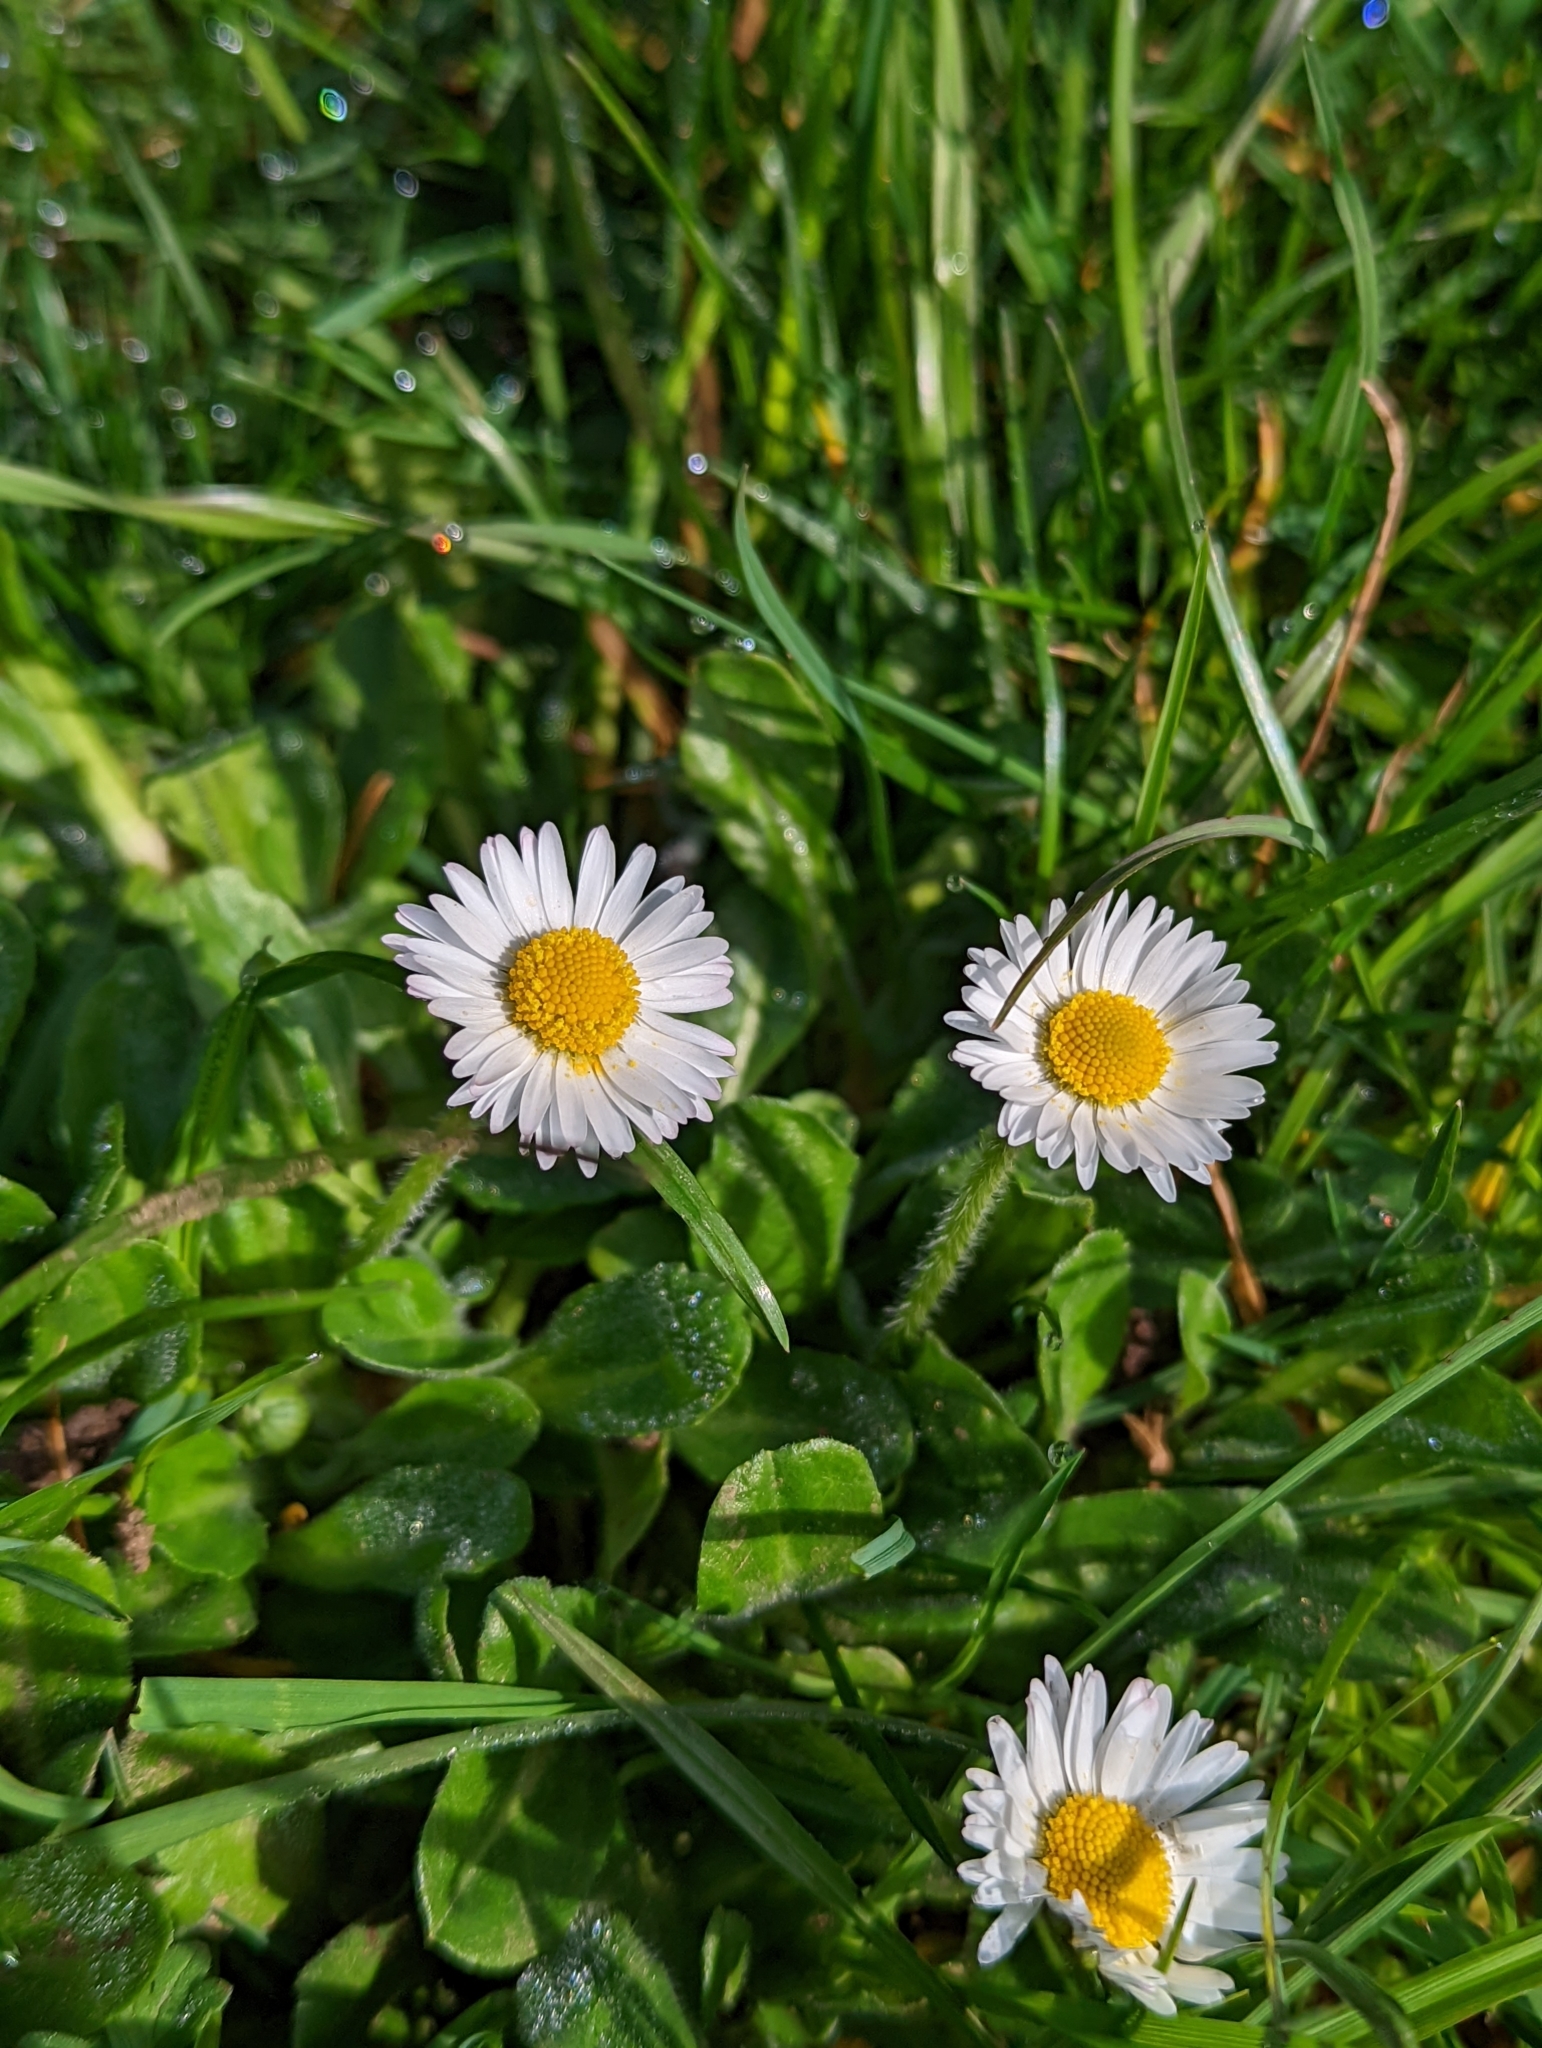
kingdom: Plantae
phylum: Tracheophyta
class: Magnoliopsida
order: Asterales
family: Asteraceae
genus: Bellis
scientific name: Bellis perennis
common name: Lawndaisy
